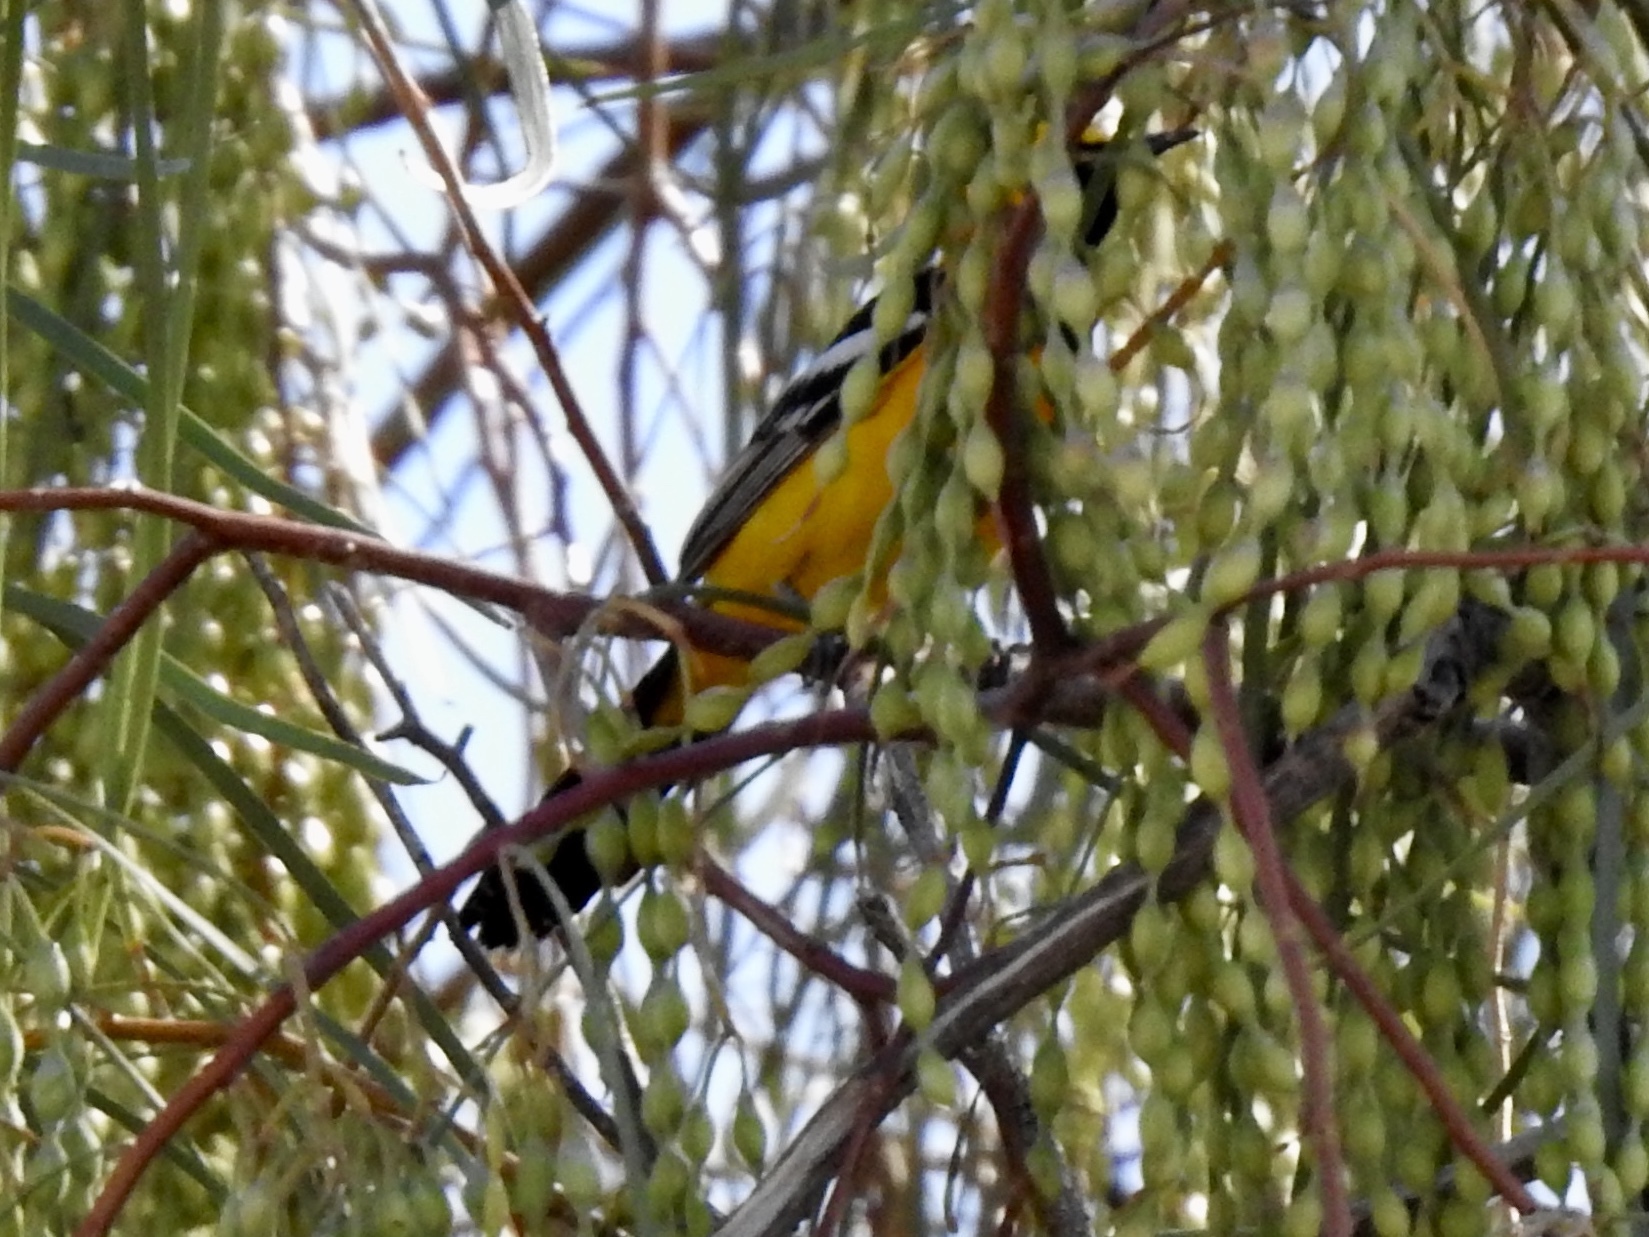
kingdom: Animalia
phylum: Chordata
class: Aves
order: Passeriformes
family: Icteridae
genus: Icterus
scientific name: Icterus cucullatus
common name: Hooded oriole
